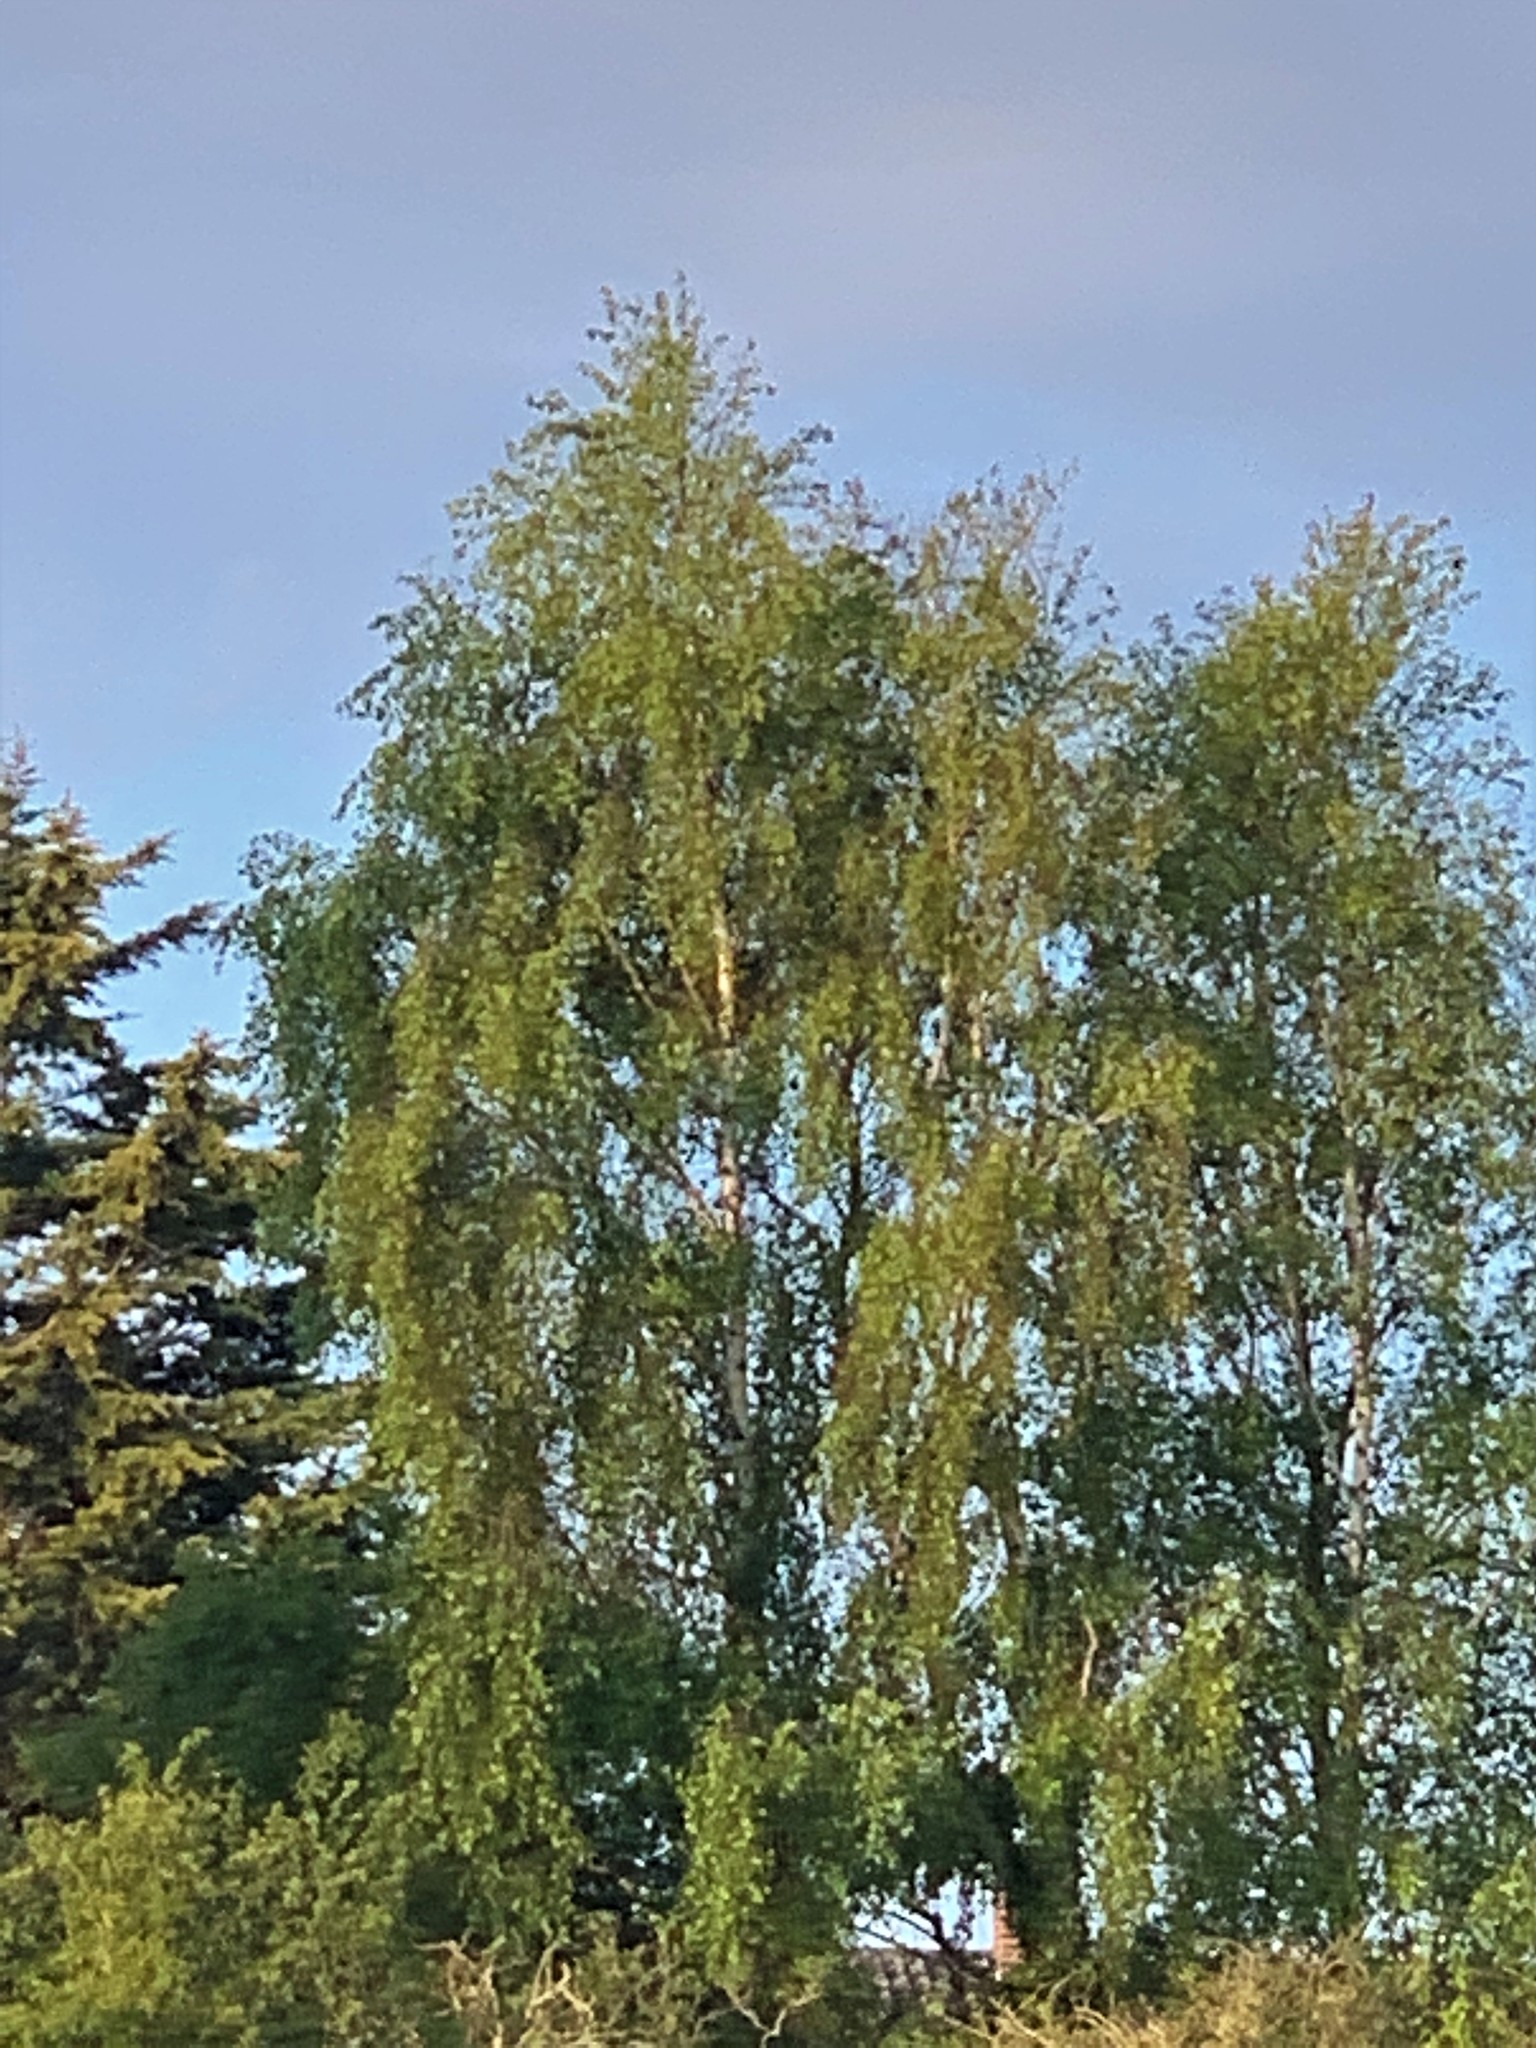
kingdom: Plantae
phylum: Tracheophyta
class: Magnoliopsida
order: Fagales
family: Betulaceae
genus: Betula
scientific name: Betula pendula
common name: Silver birch
